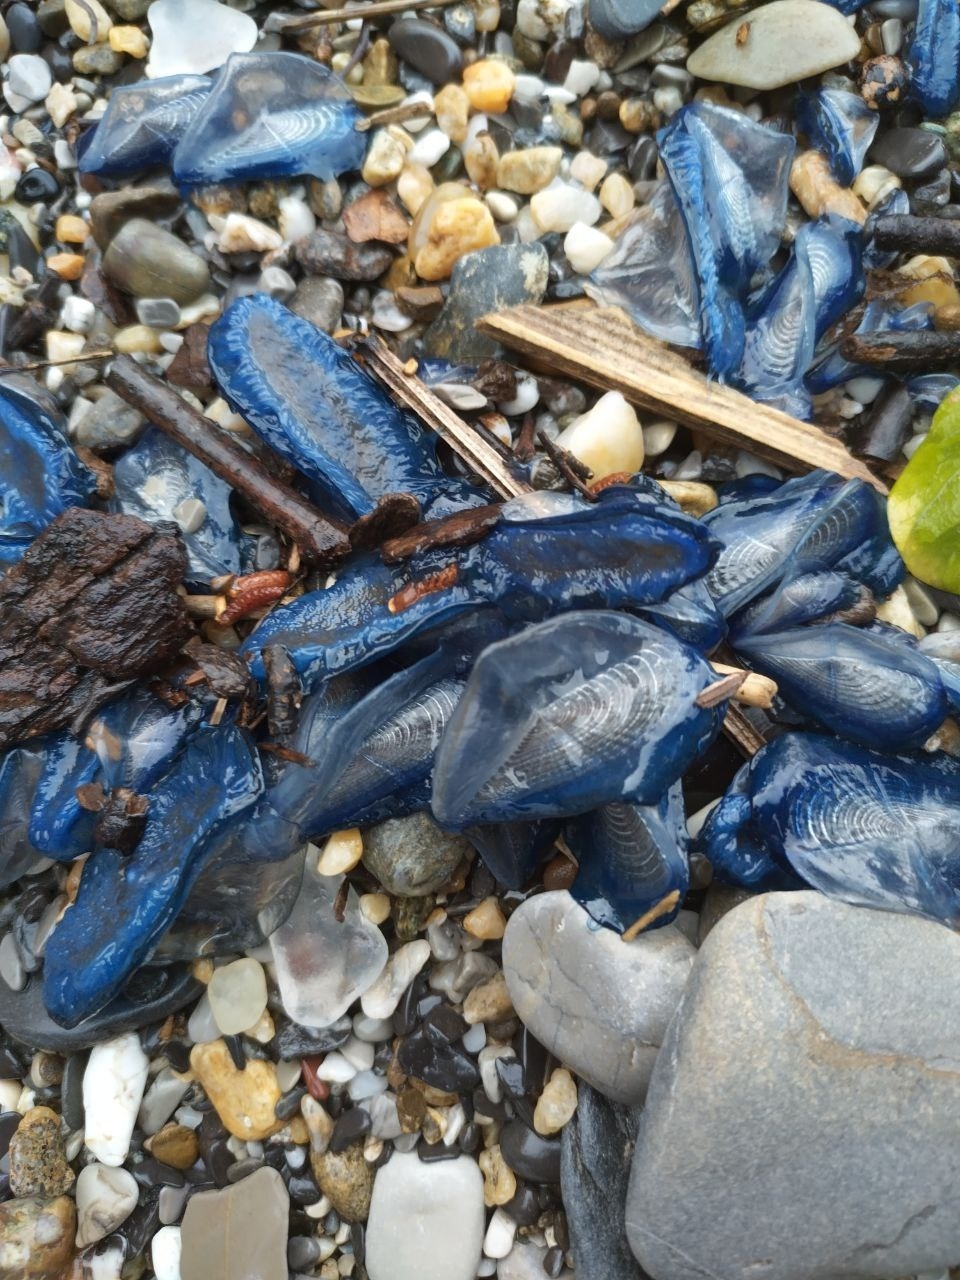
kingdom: Animalia
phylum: Cnidaria
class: Hydrozoa
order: Anthoathecata
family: Porpitidae
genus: Velella
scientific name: Velella velella
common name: By-the-wind-sailor
